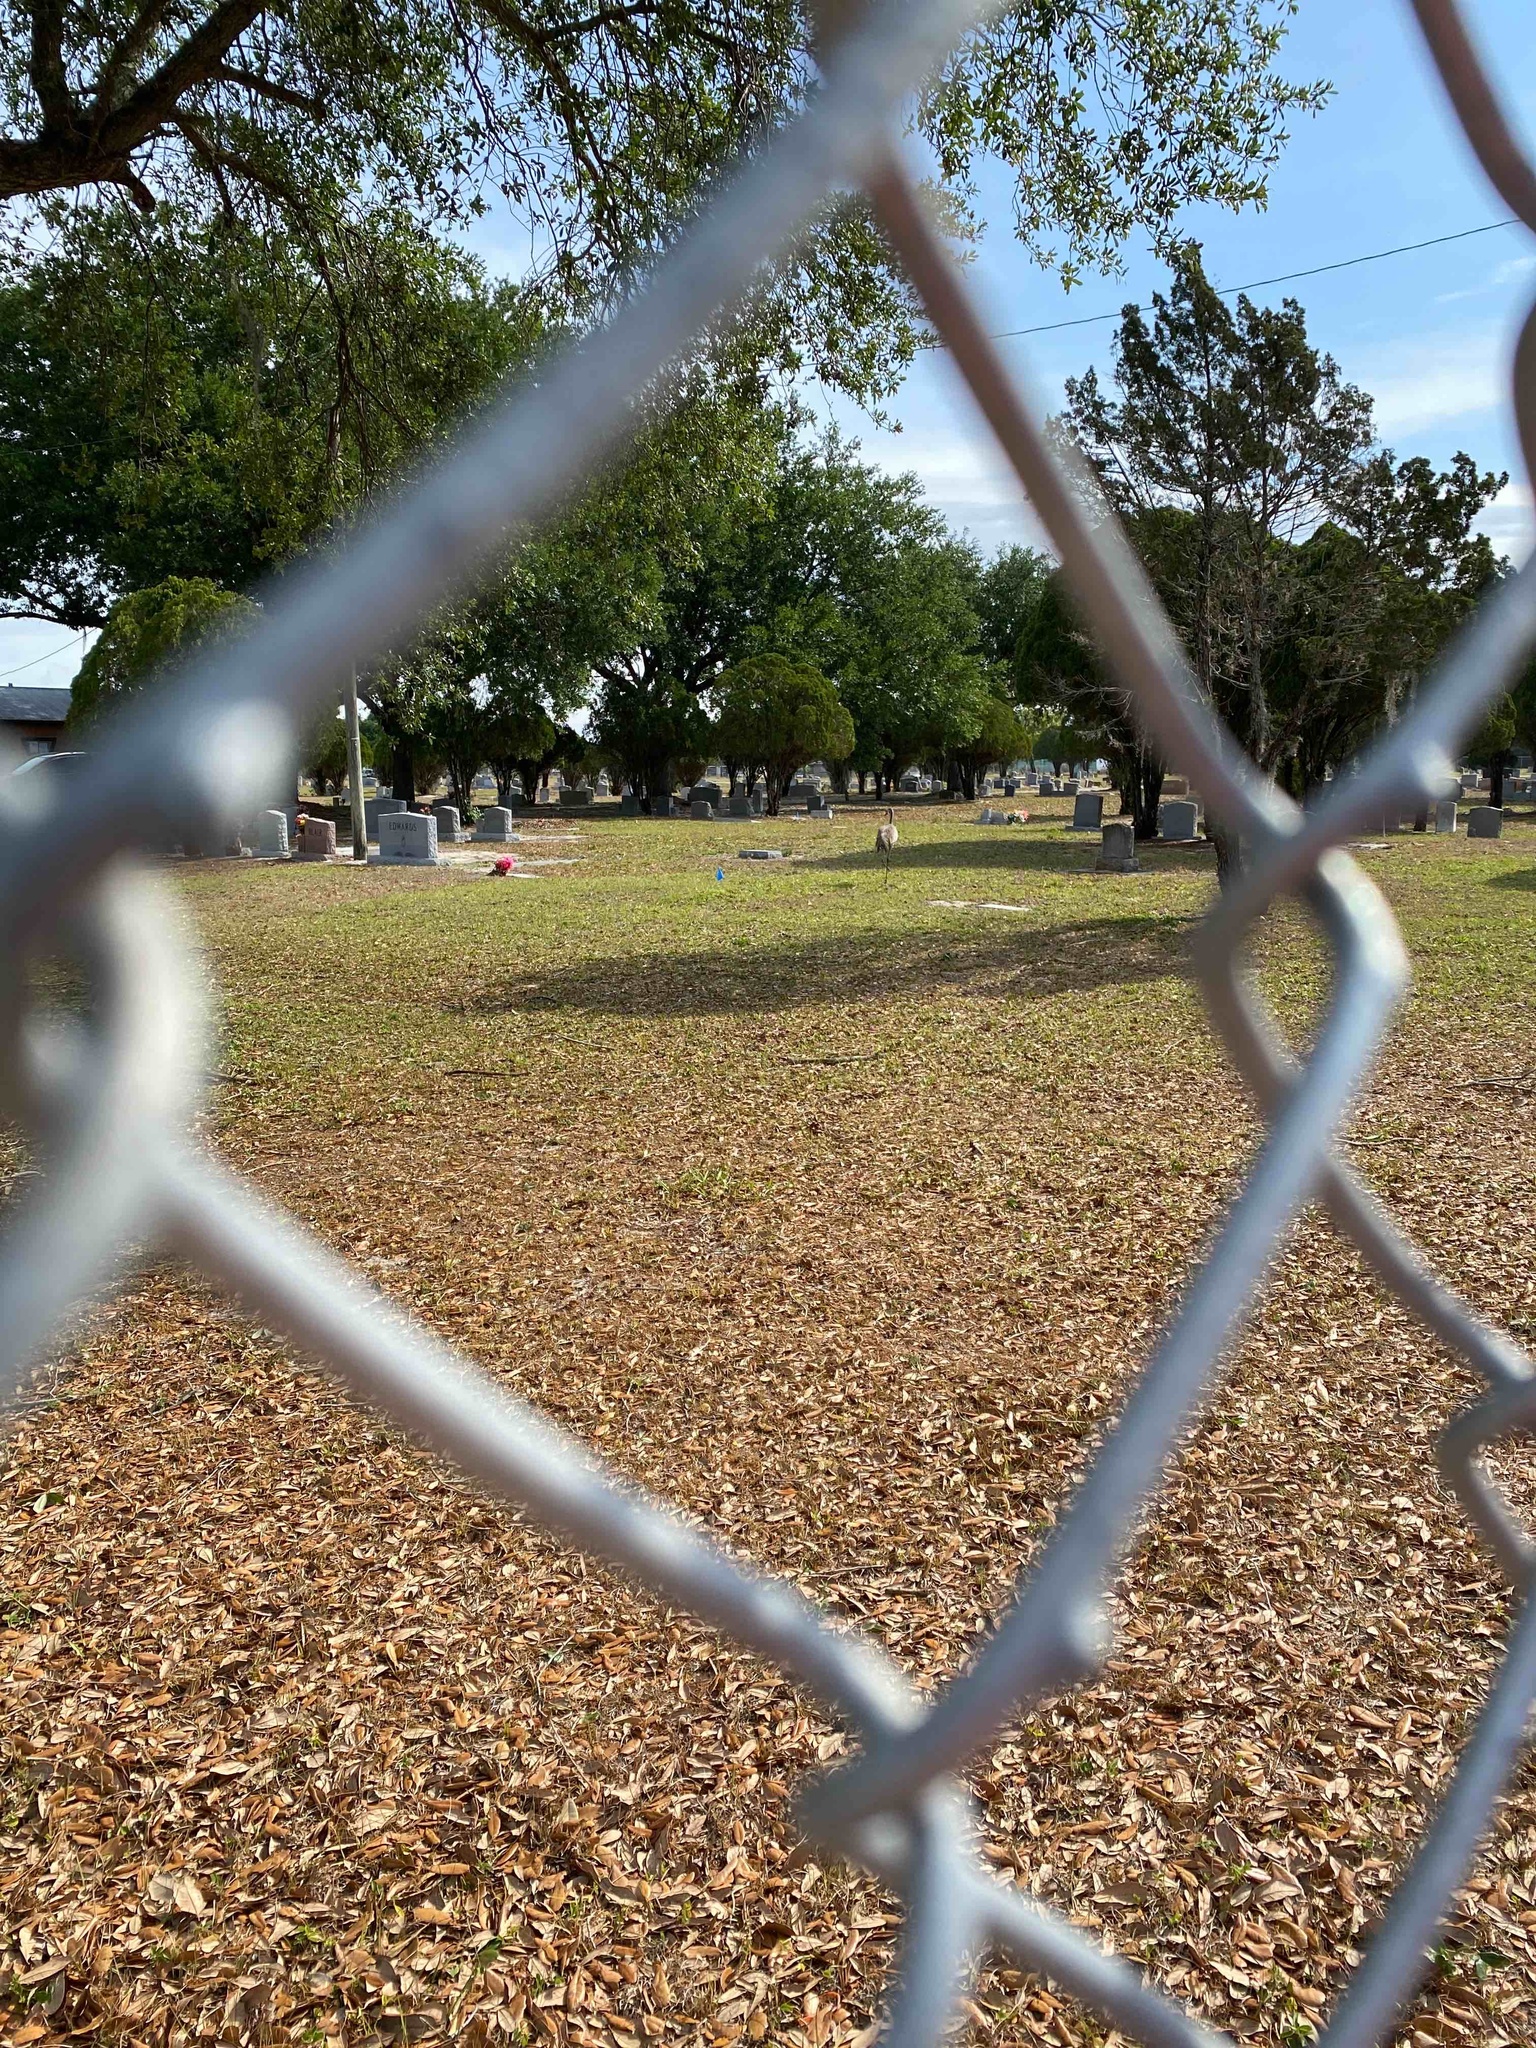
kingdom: Animalia
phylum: Chordata
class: Aves
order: Gruiformes
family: Gruidae
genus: Grus
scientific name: Grus canadensis
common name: Sandhill crane
